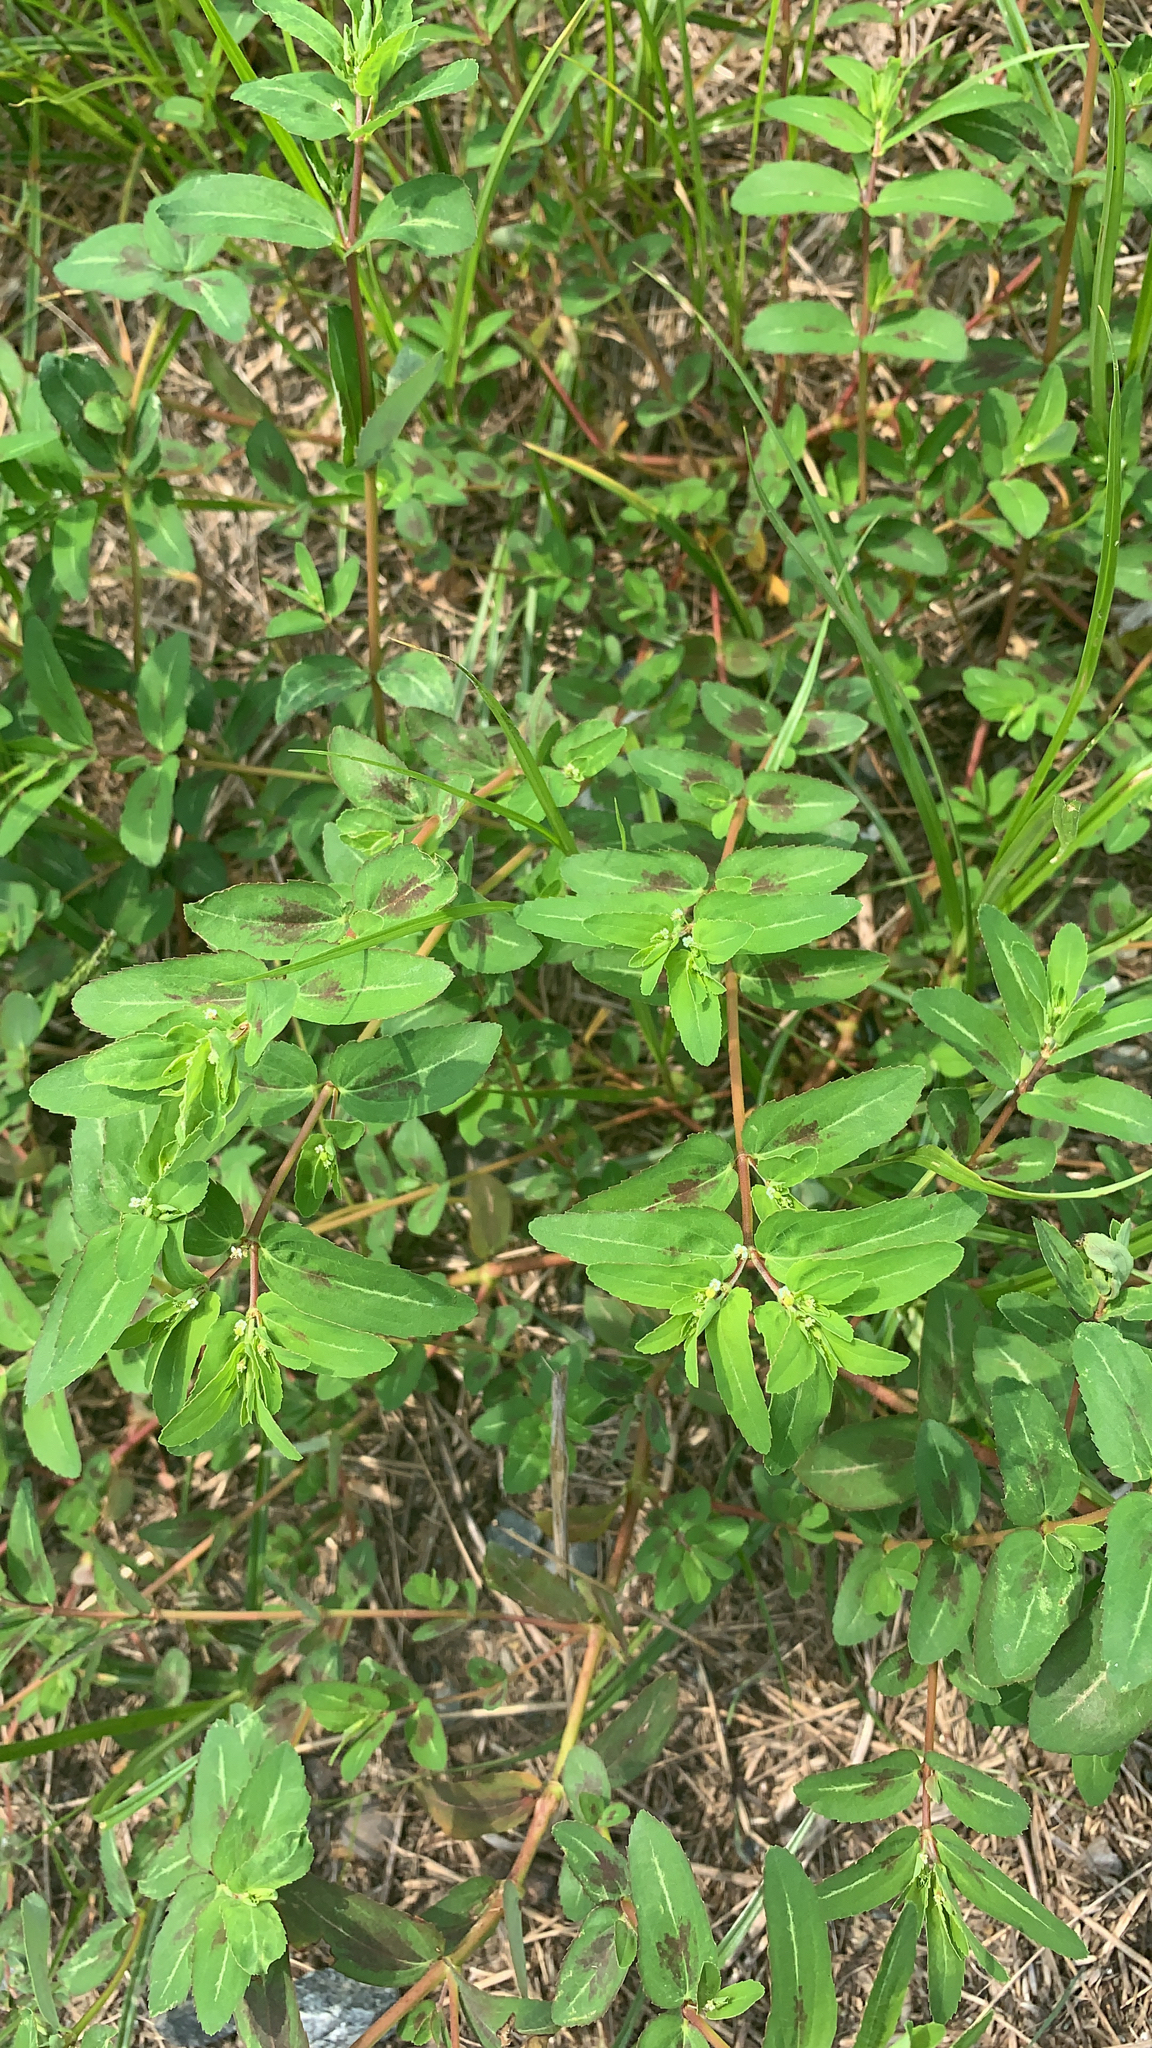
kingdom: Plantae
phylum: Tracheophyta
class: Magnoliopsida
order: Malpighiales
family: Euphorbiaceae
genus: Euphorbia
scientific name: Euphorbia nutans
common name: Eyebane
